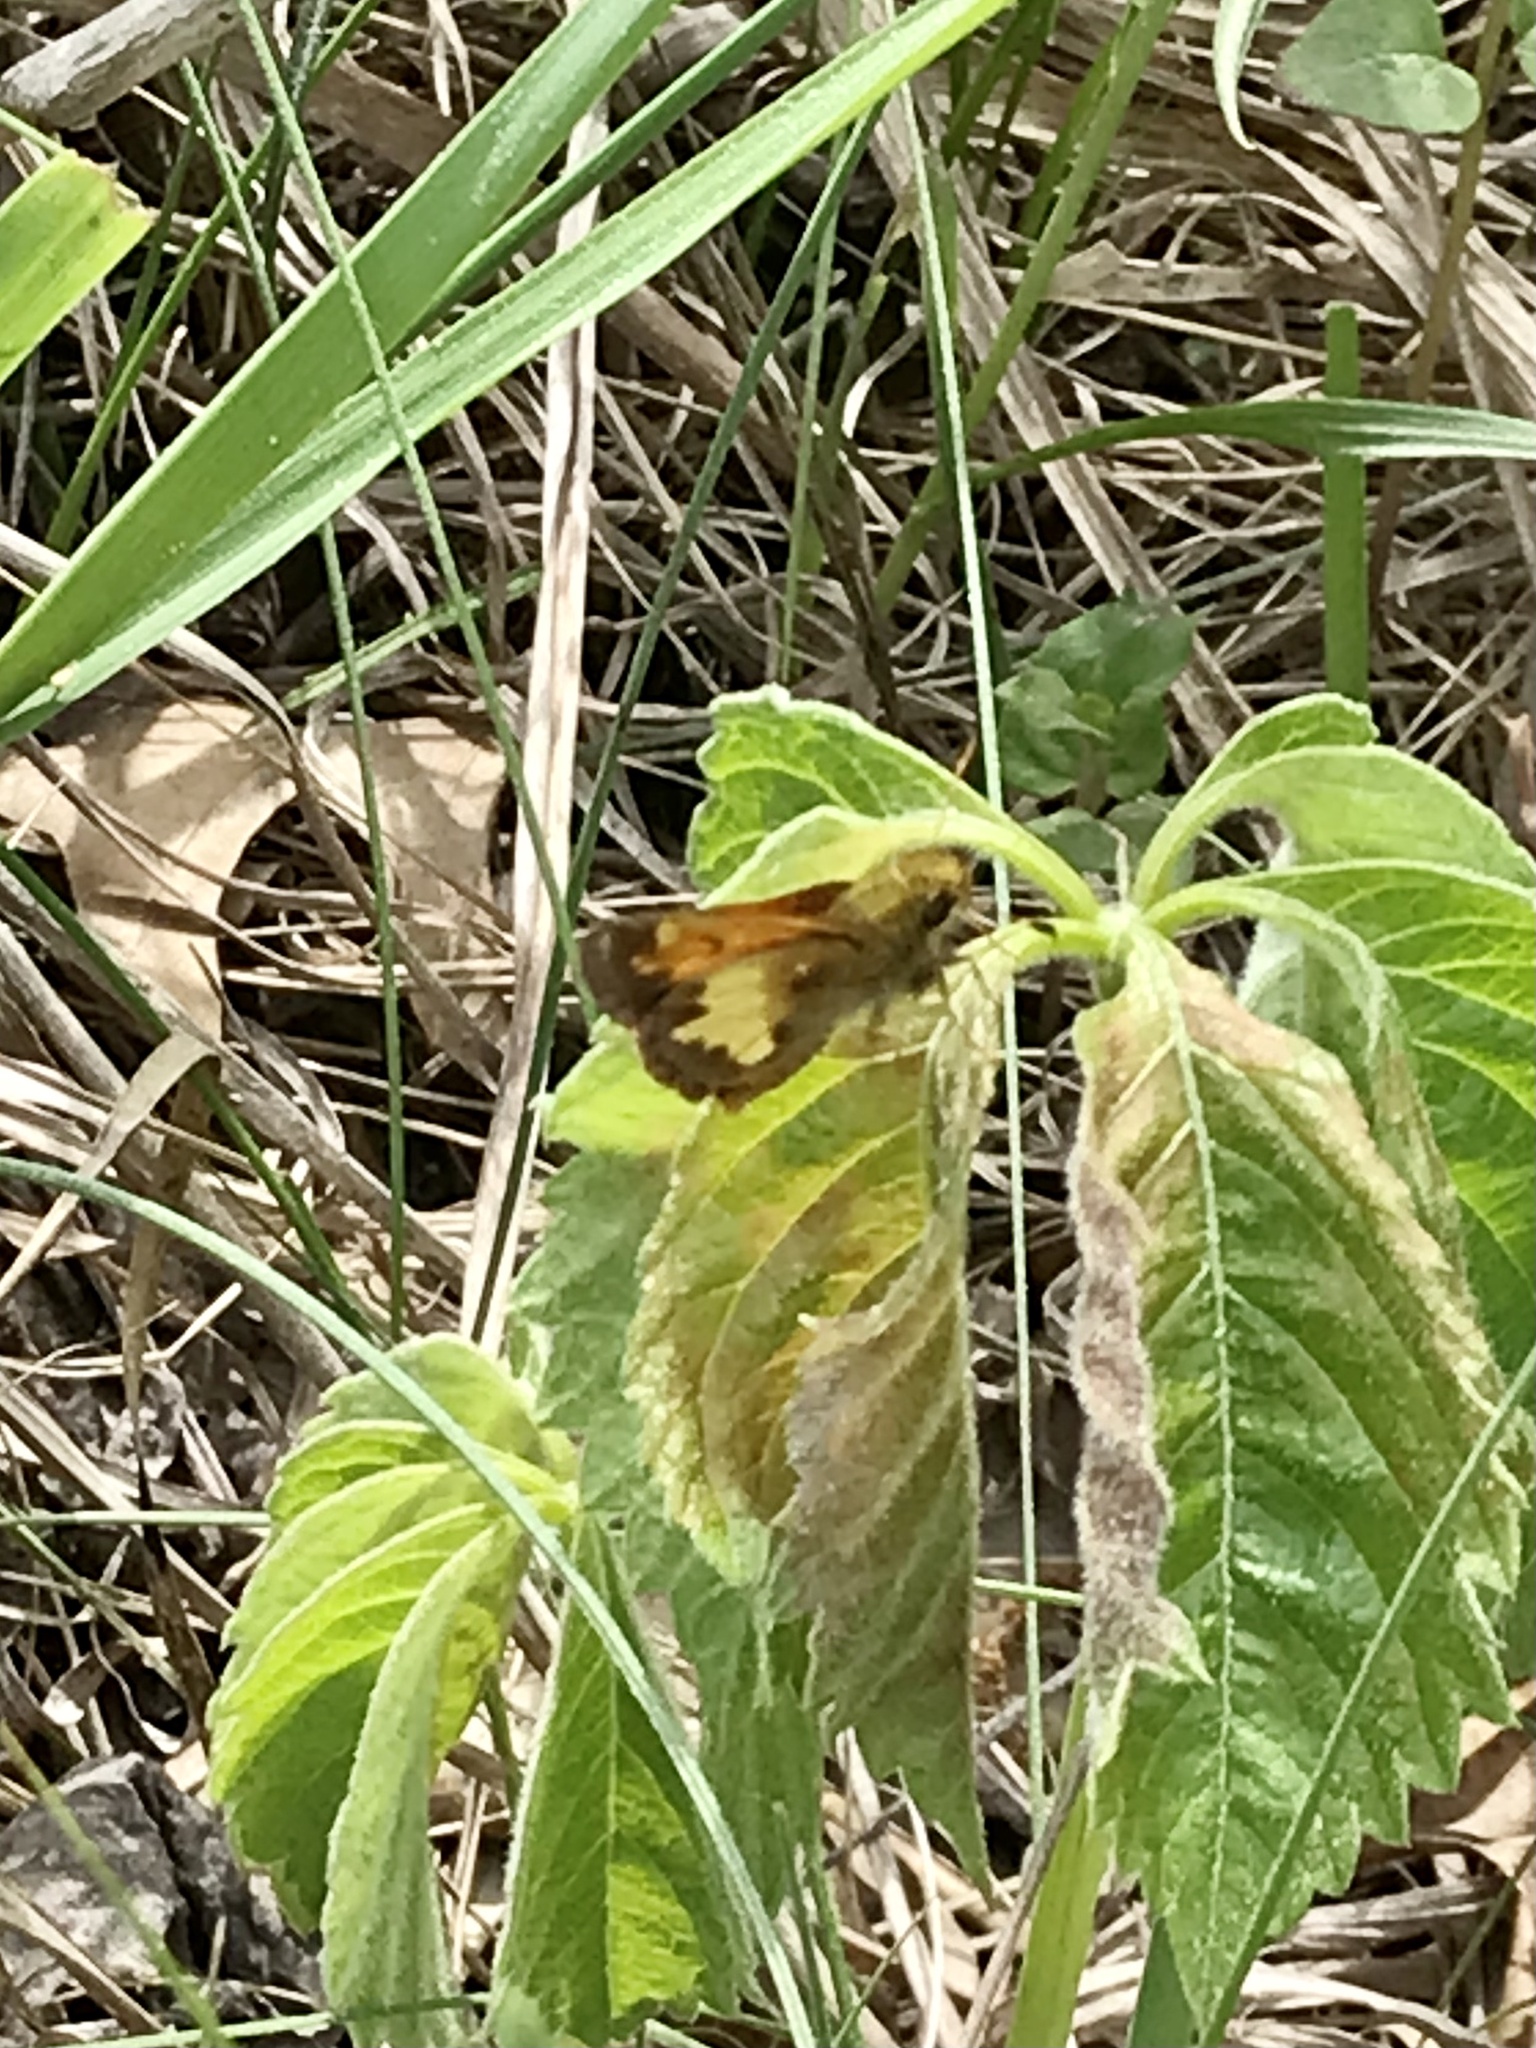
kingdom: Animalia
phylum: Arthropoda
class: Insecta
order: Lepidoptera
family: Hesperiidae
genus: Lon
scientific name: Lon hobomok
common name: Hobomok skipper
